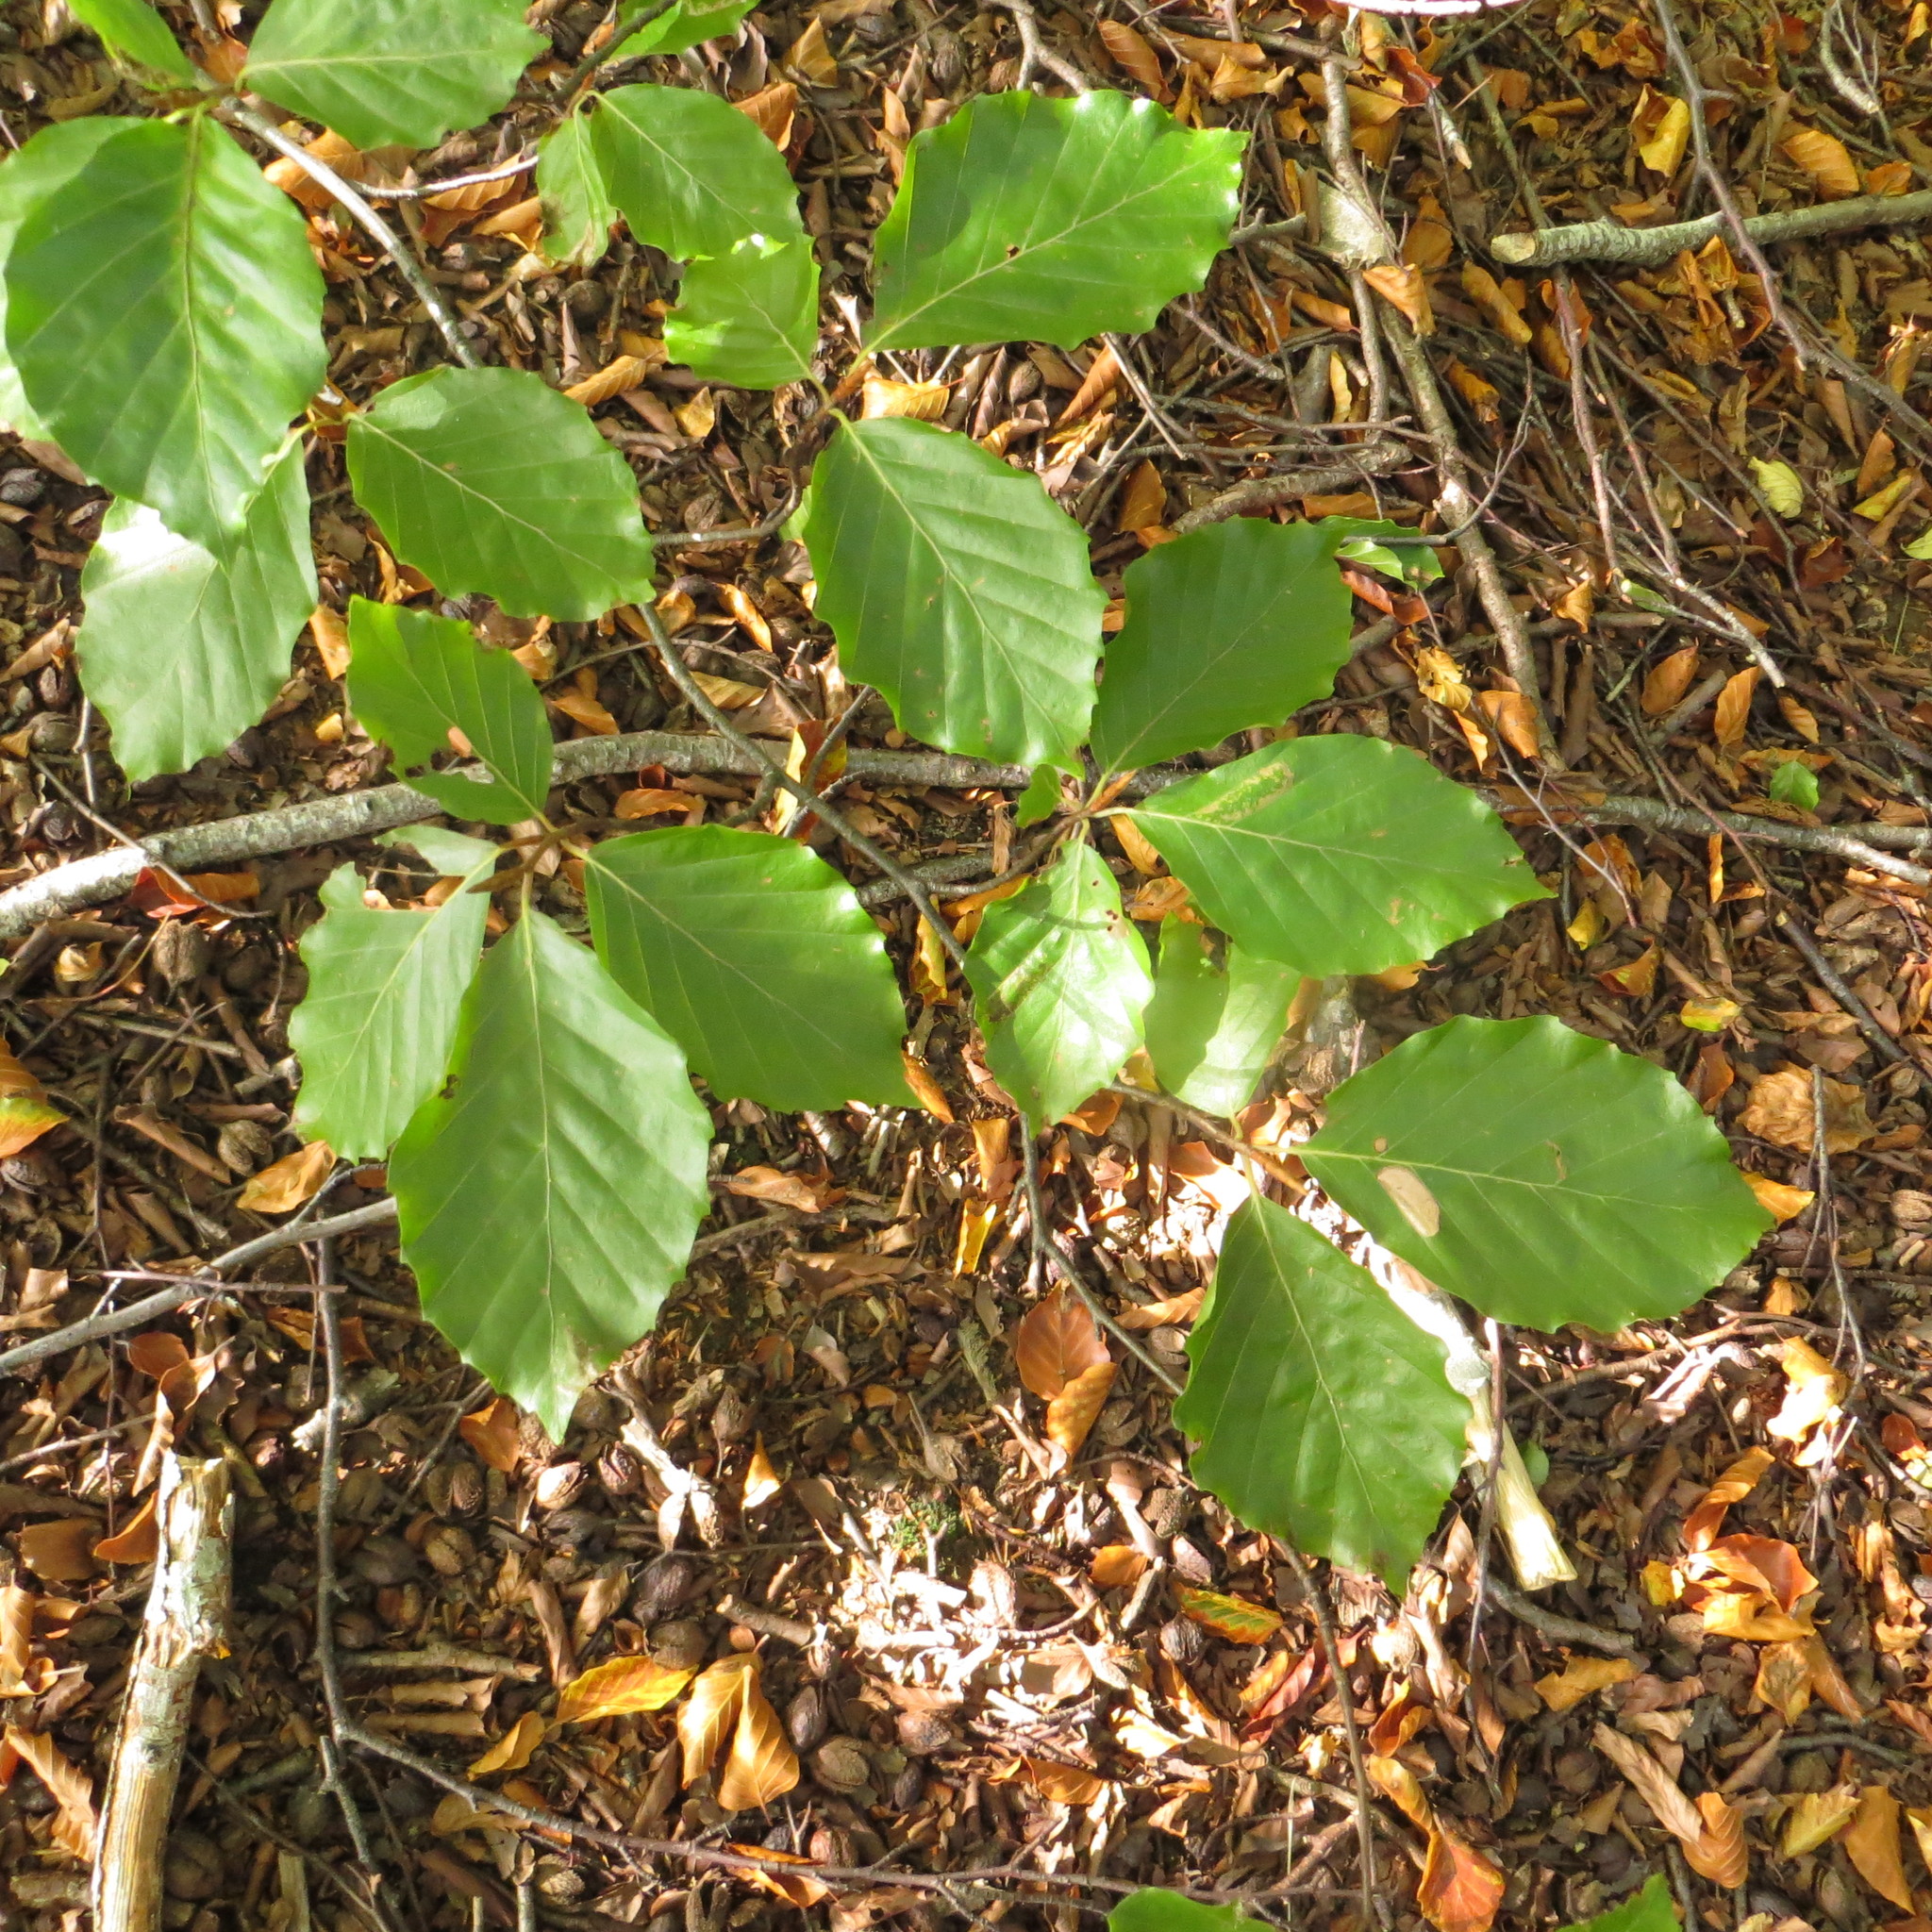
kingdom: Plantae
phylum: Tracheophyta
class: Magnoliopsida
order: Fagales
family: Fagaceae
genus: Fagus
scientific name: Fagus sylvatica
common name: Beech
